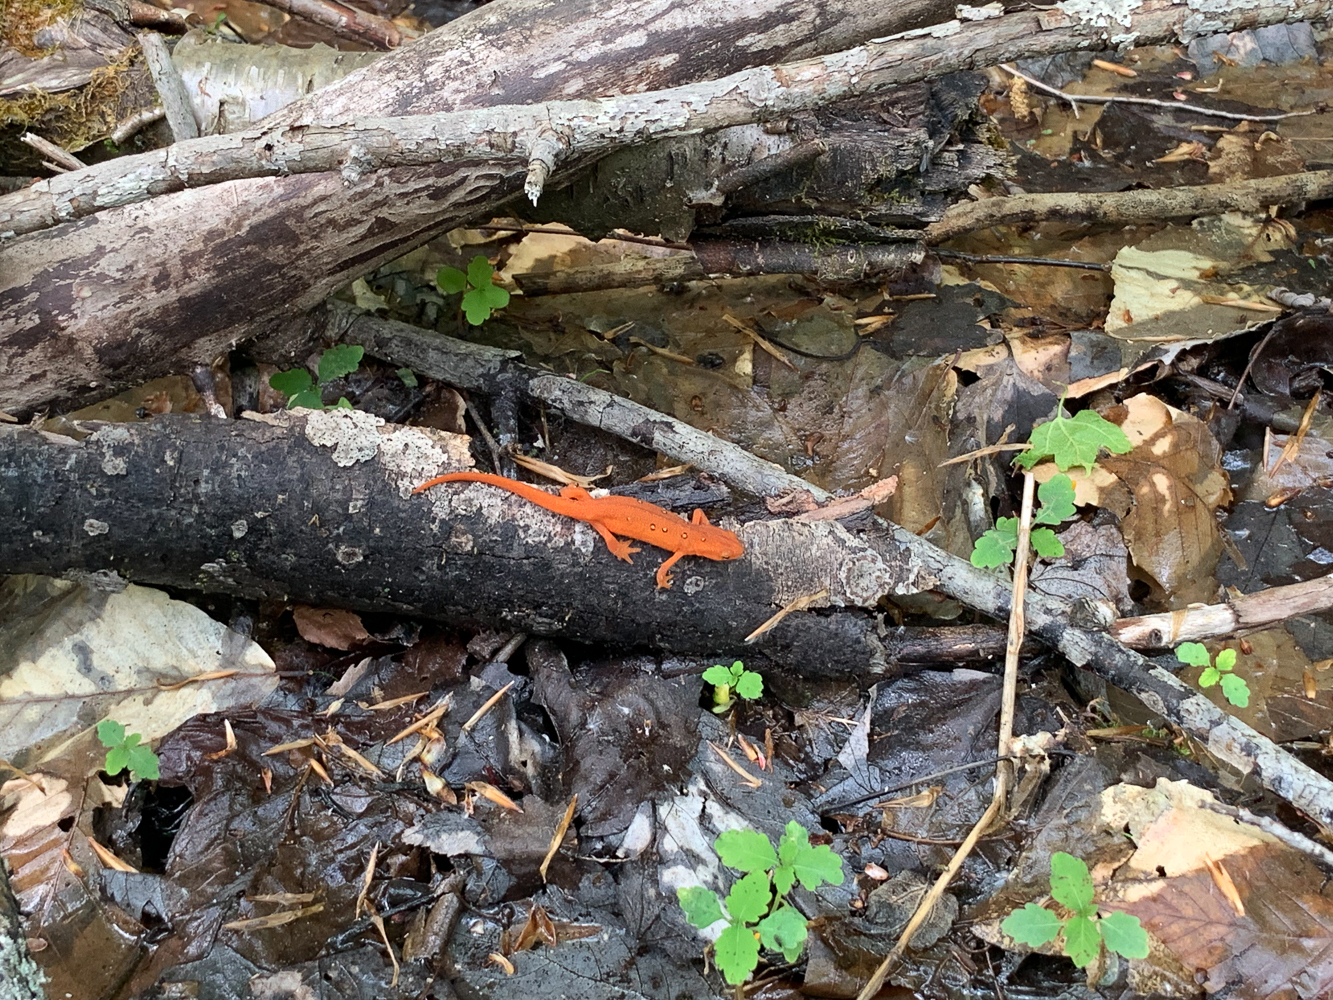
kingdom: Animalia
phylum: Chordata
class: Amphibia
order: Caudata
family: Salamandridae
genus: Notophthalmus
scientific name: Notophthalmus viridescens
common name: Eastern newt
